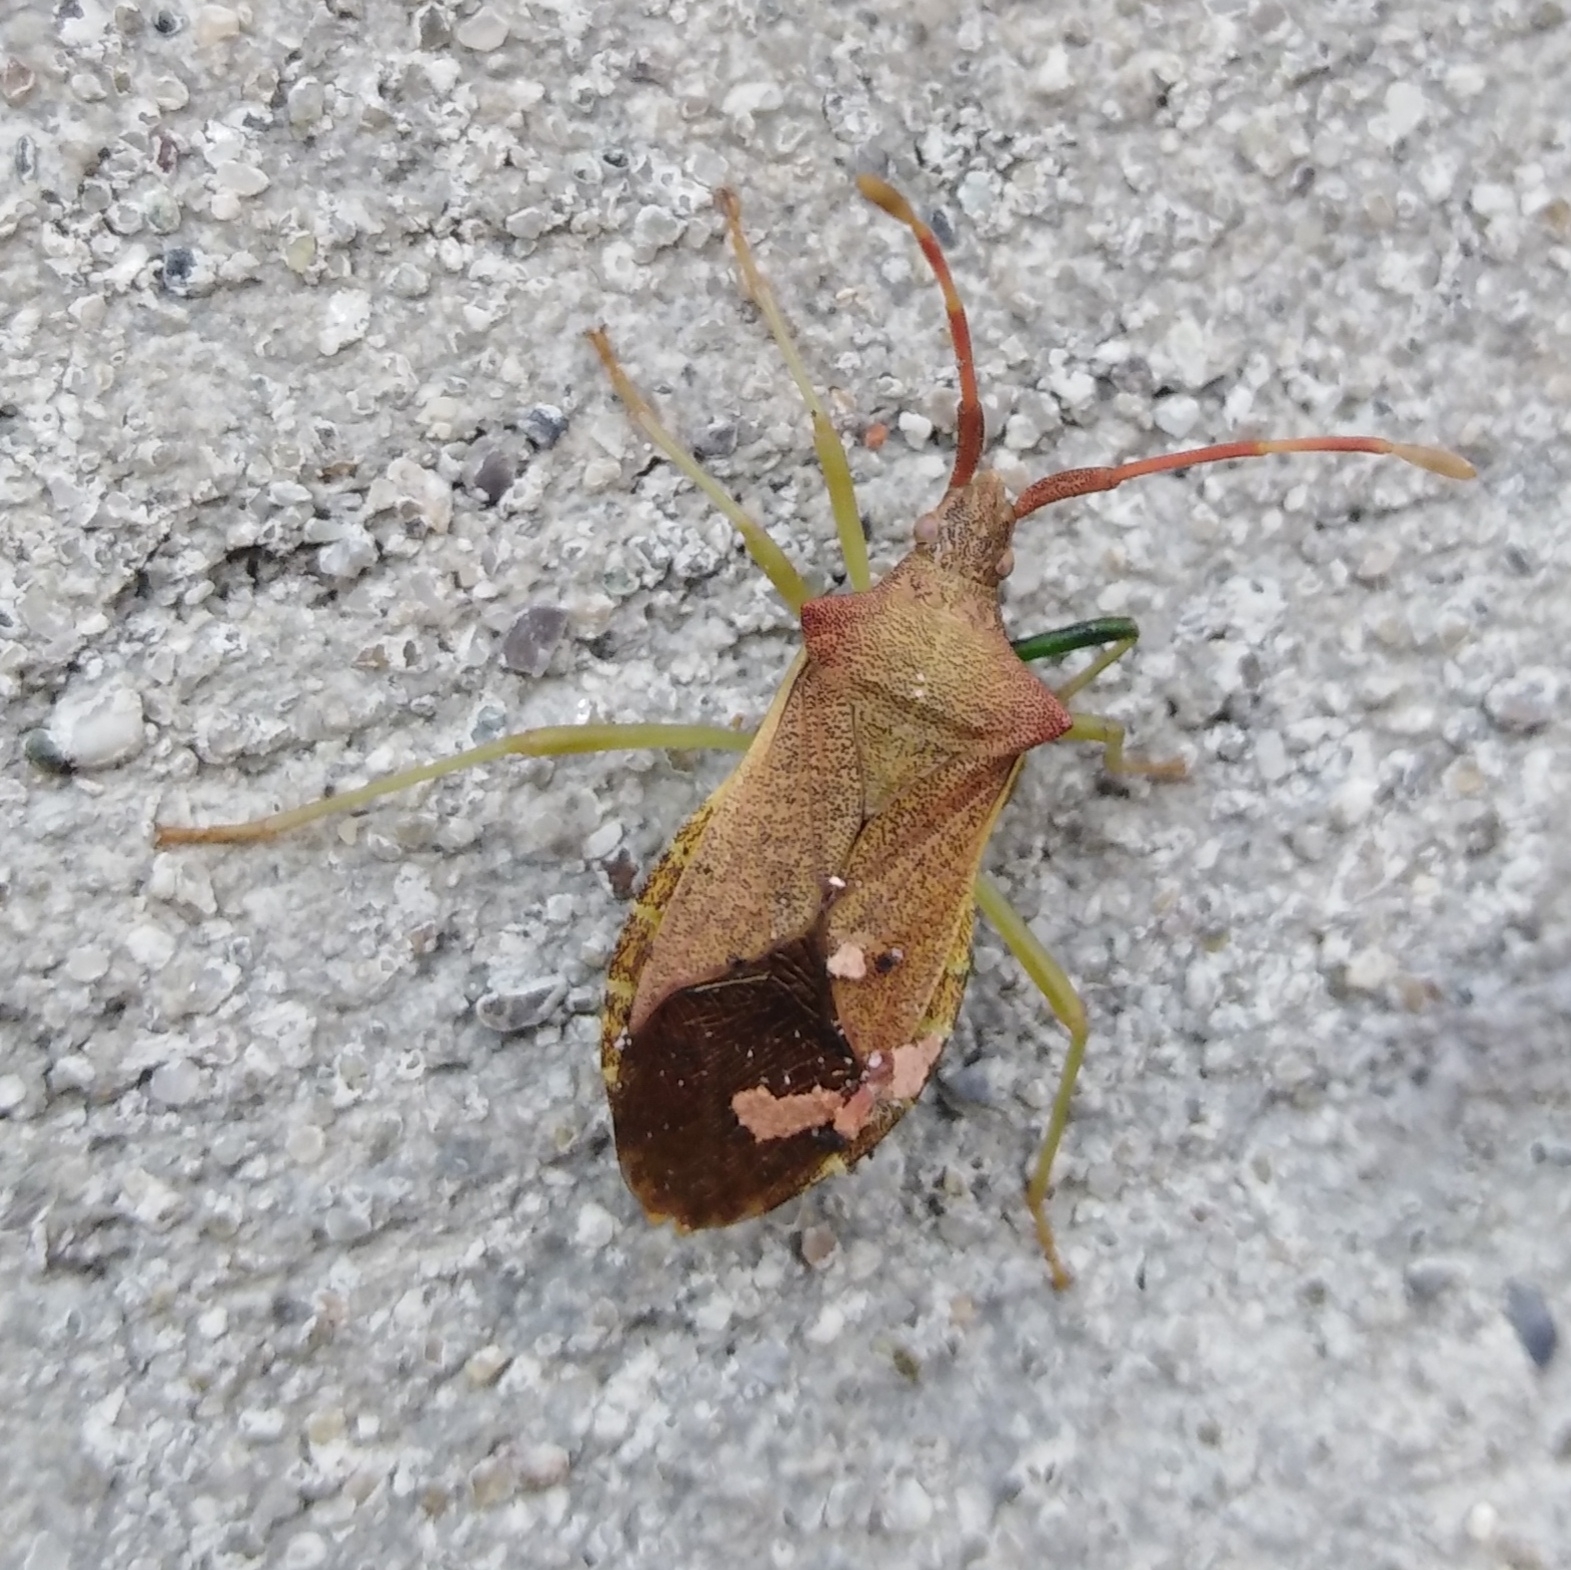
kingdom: Animalia
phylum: Arthropoda
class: Insecta
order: Hemiptera
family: Coreidae
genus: Gonocerus
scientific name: Gonocerus acuteangulatus
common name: Box bug
